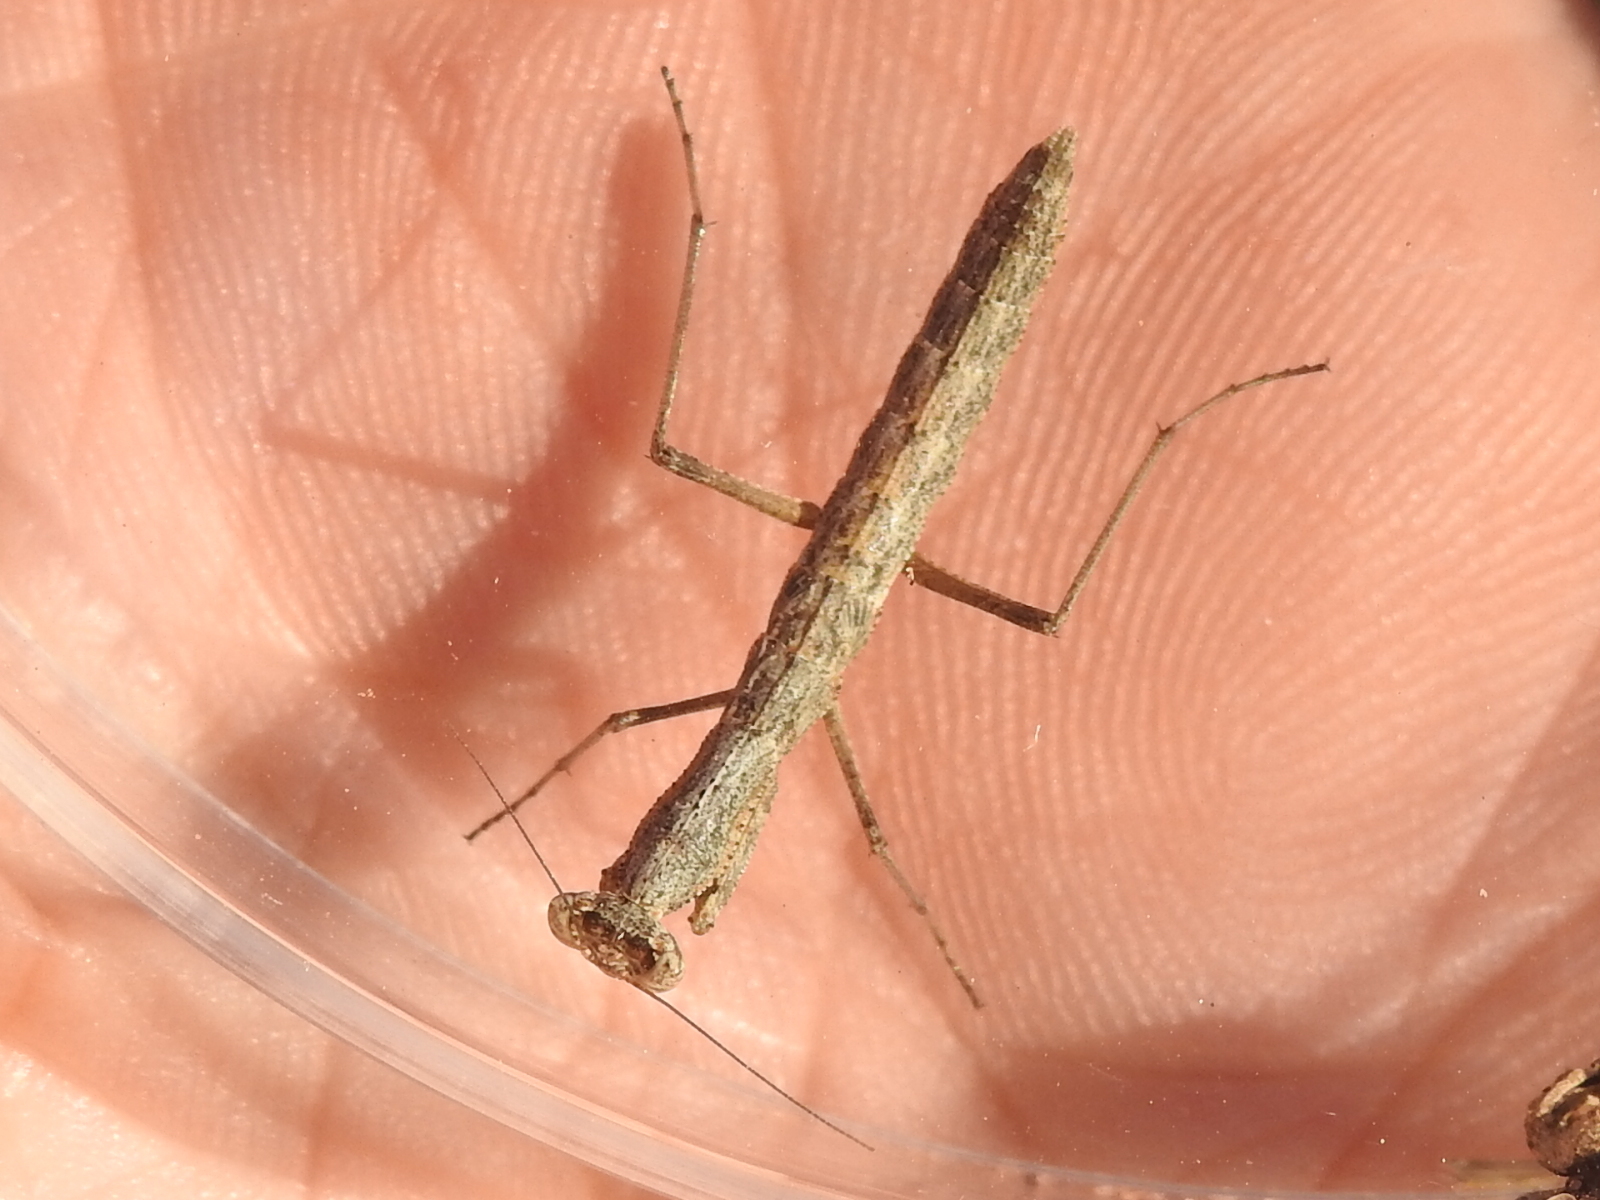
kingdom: Animalia
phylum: Arthropoda
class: Insecta
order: Mantodea
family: Amelidae
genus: Litaneutria
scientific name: Litaneutria minor
